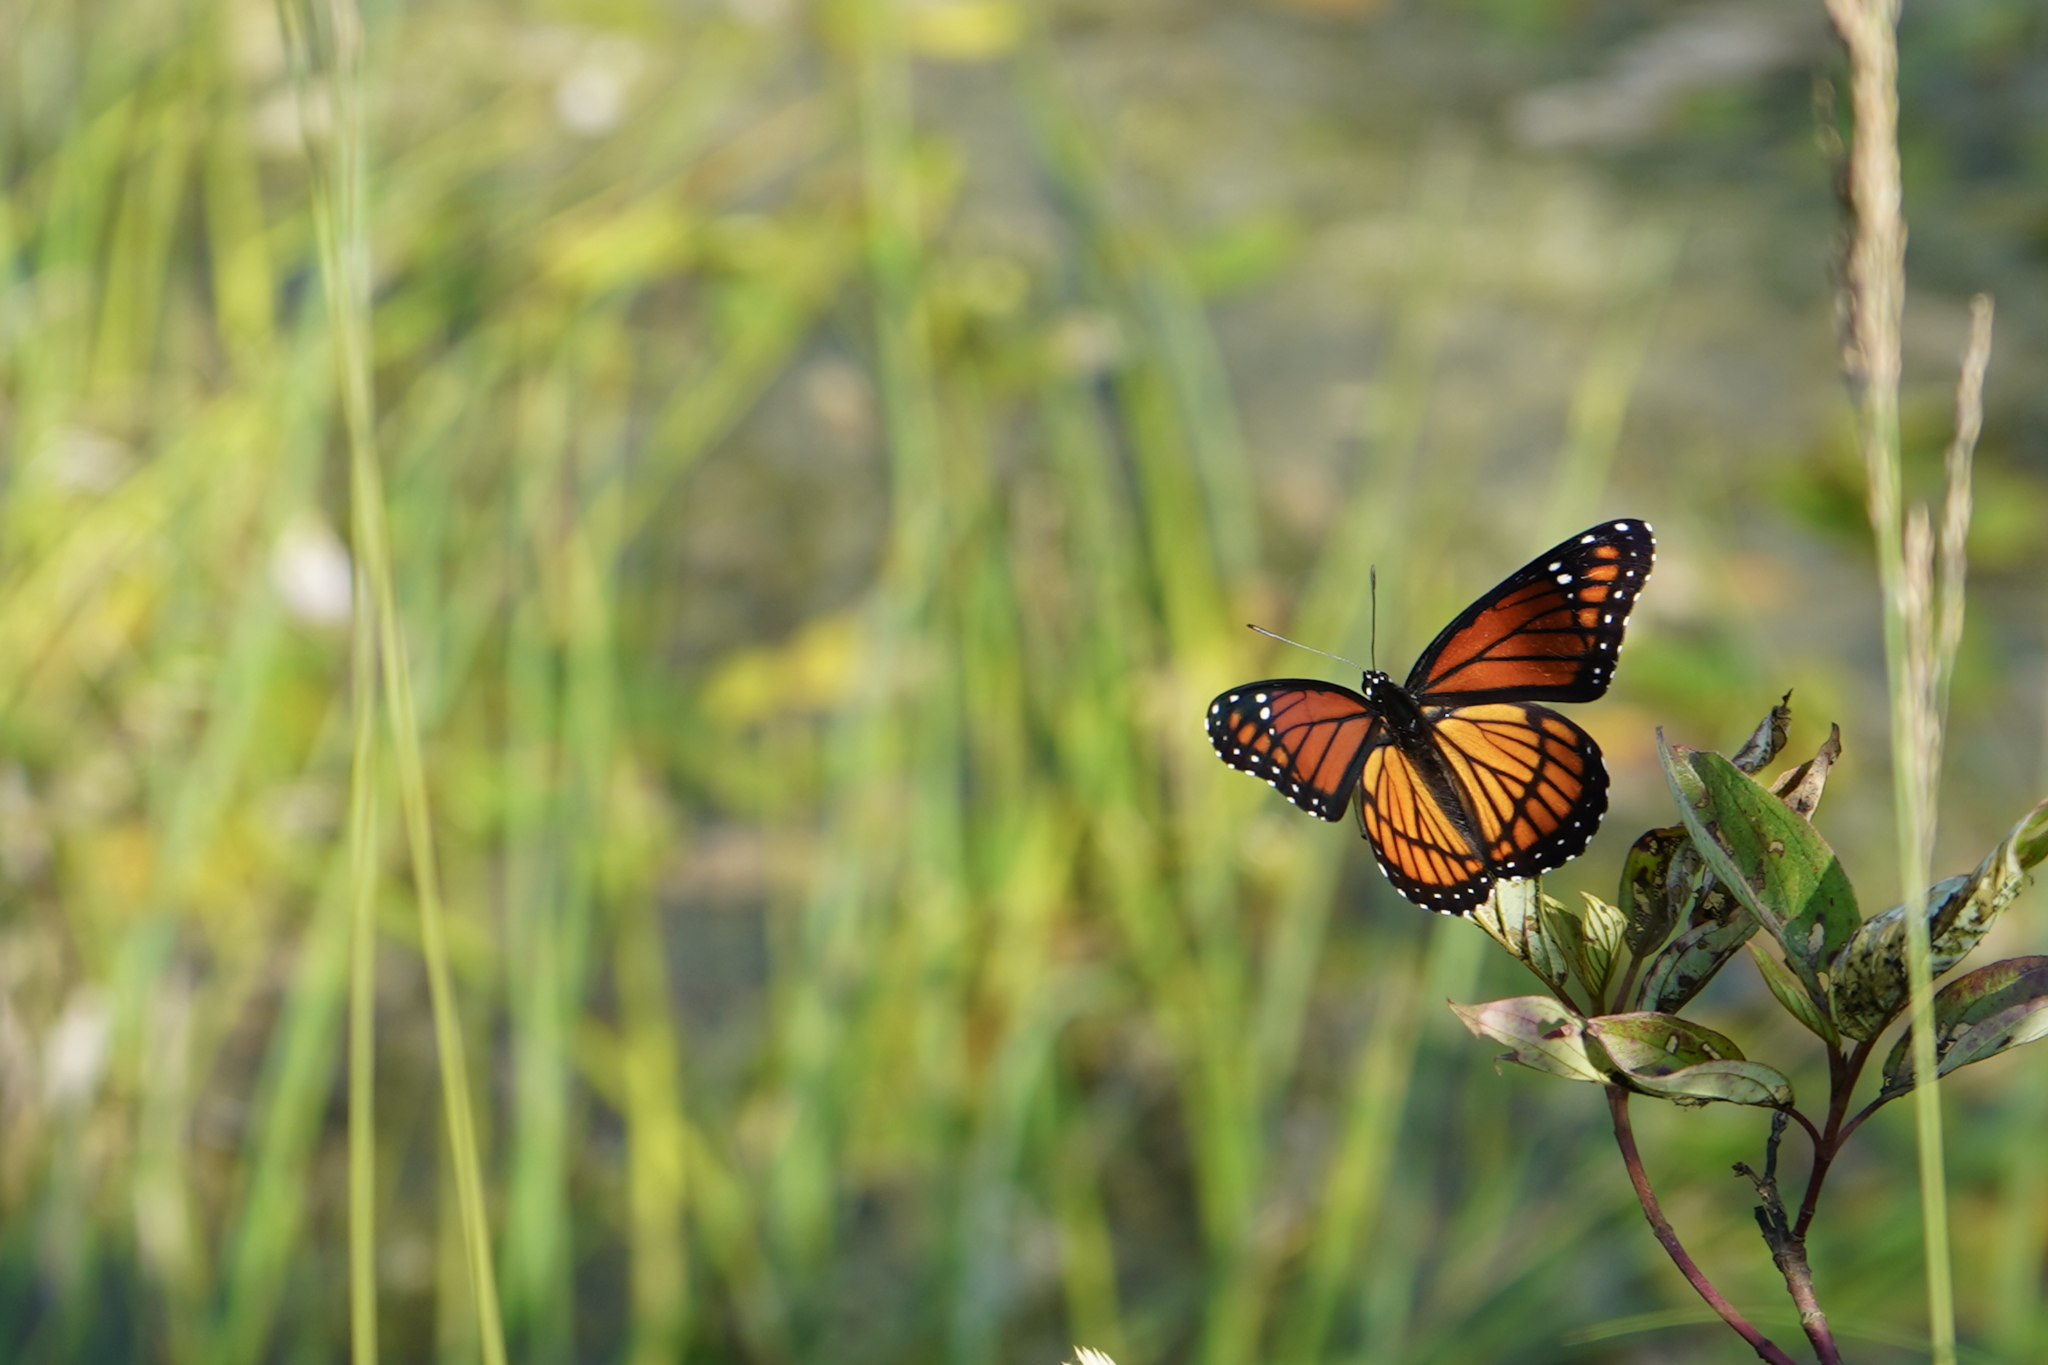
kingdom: Animalia
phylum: Arthropoda
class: Insecta
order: Lepidoptera
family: Nymphalidae
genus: Limenitis
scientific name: Limenitis archippus
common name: Viceroy
